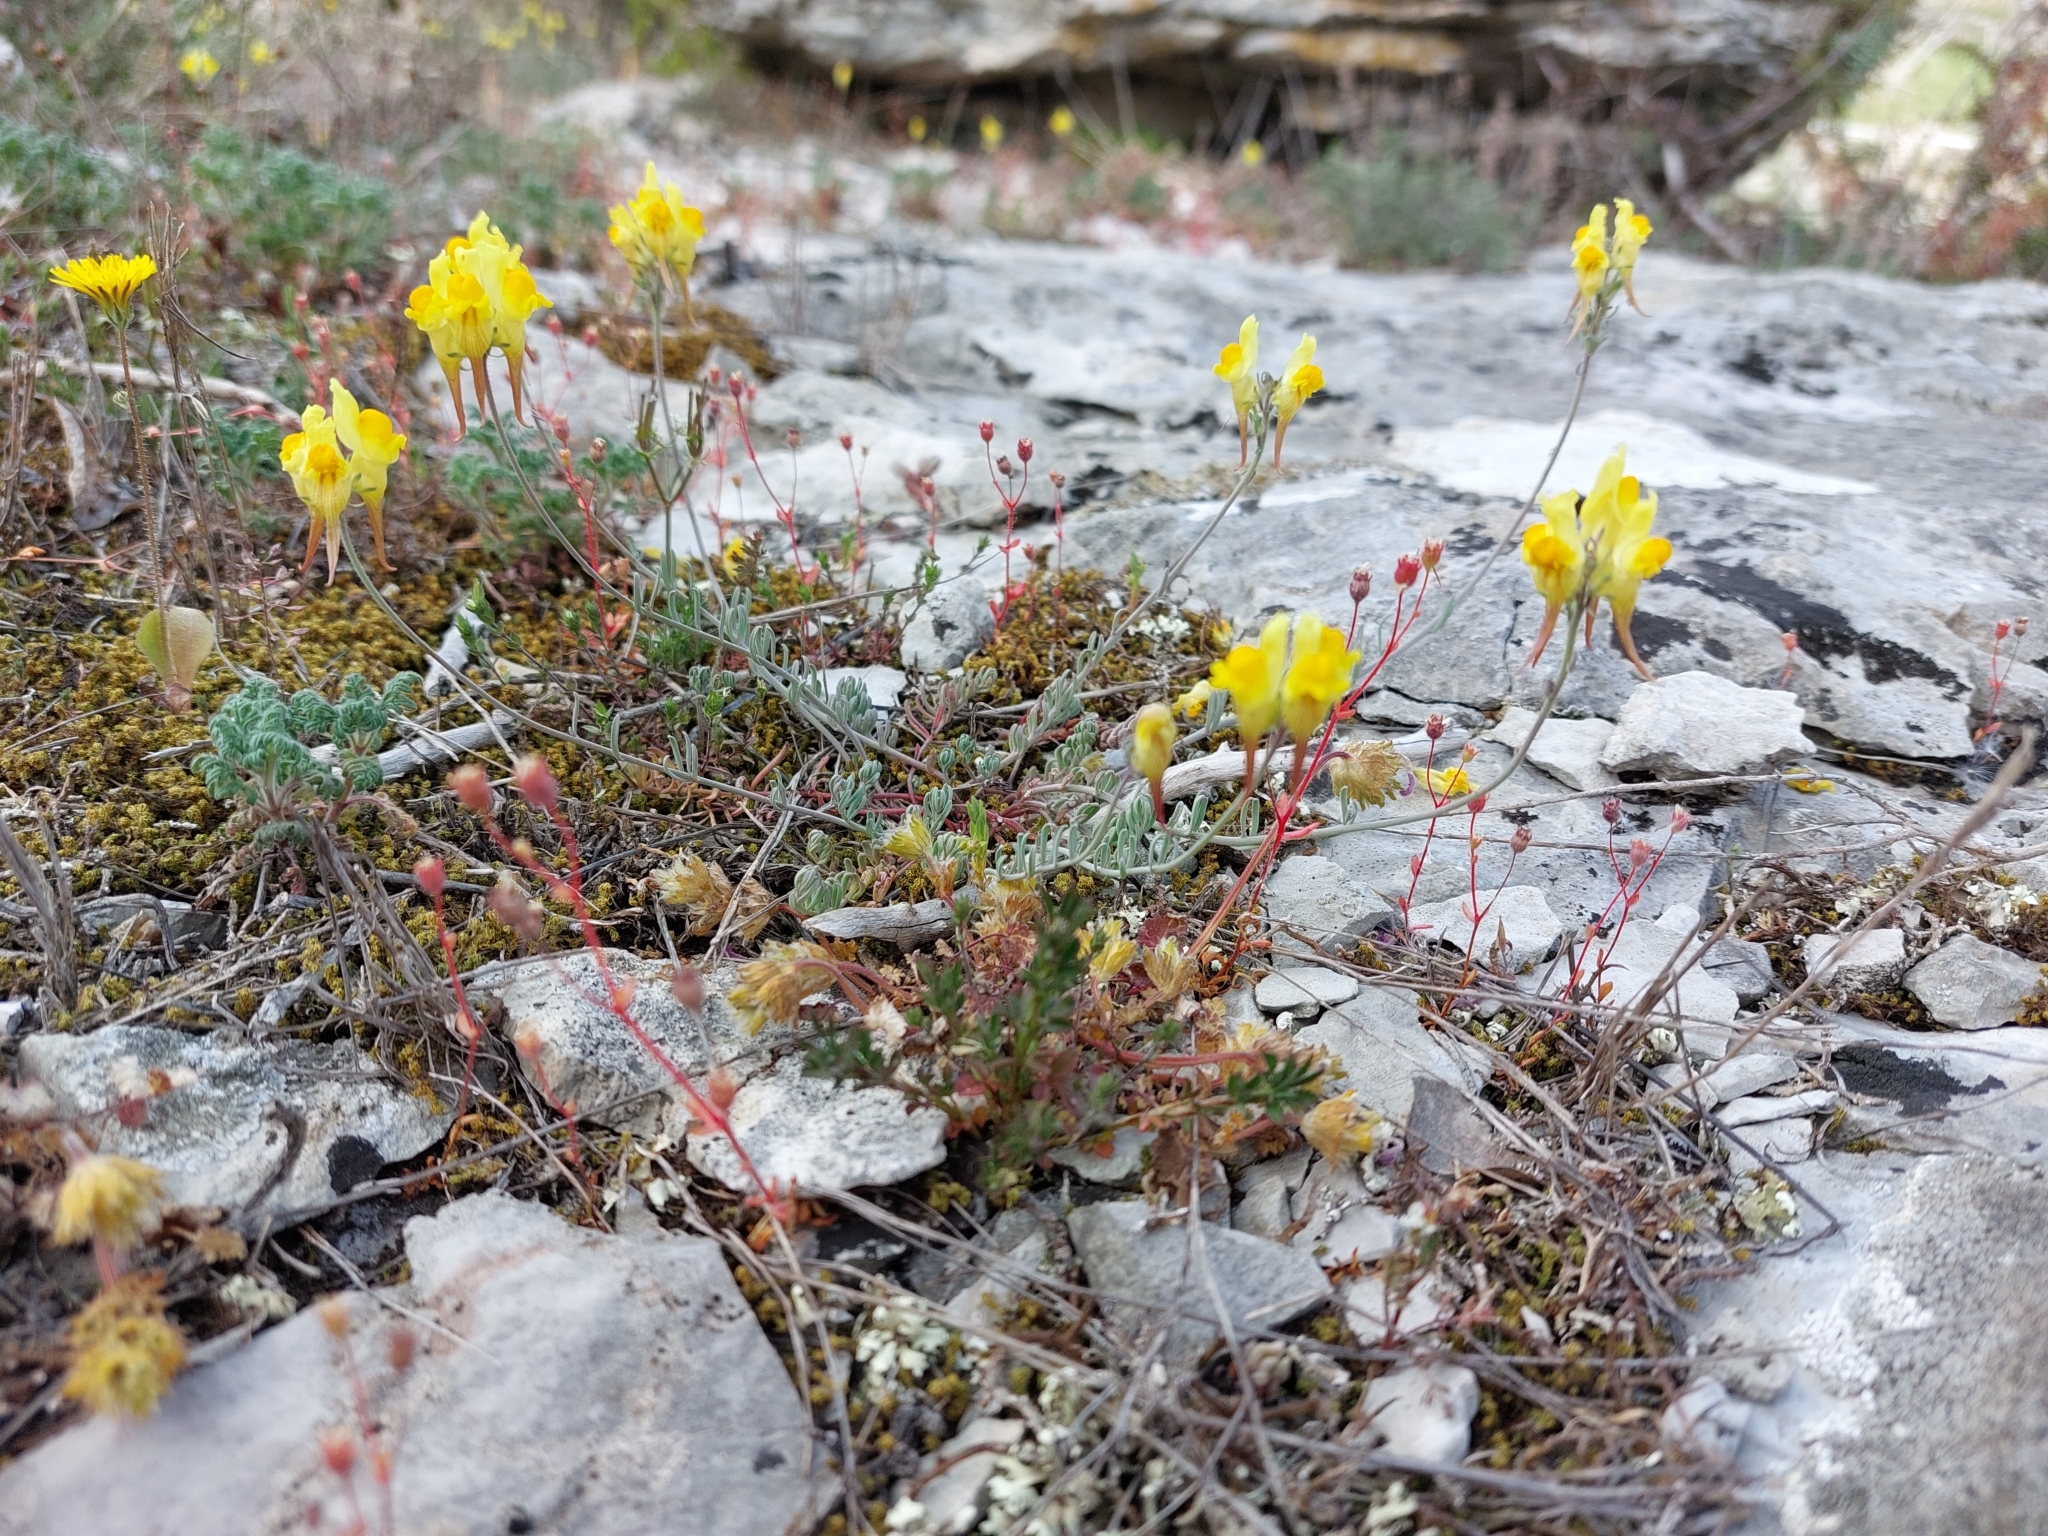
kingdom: Plantae
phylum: Tracheophyta
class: Magnoliopsida
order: Lamiales
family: Plantaginaceae
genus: Linaria
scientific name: Linaria supina
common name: Prostrate toadflax
